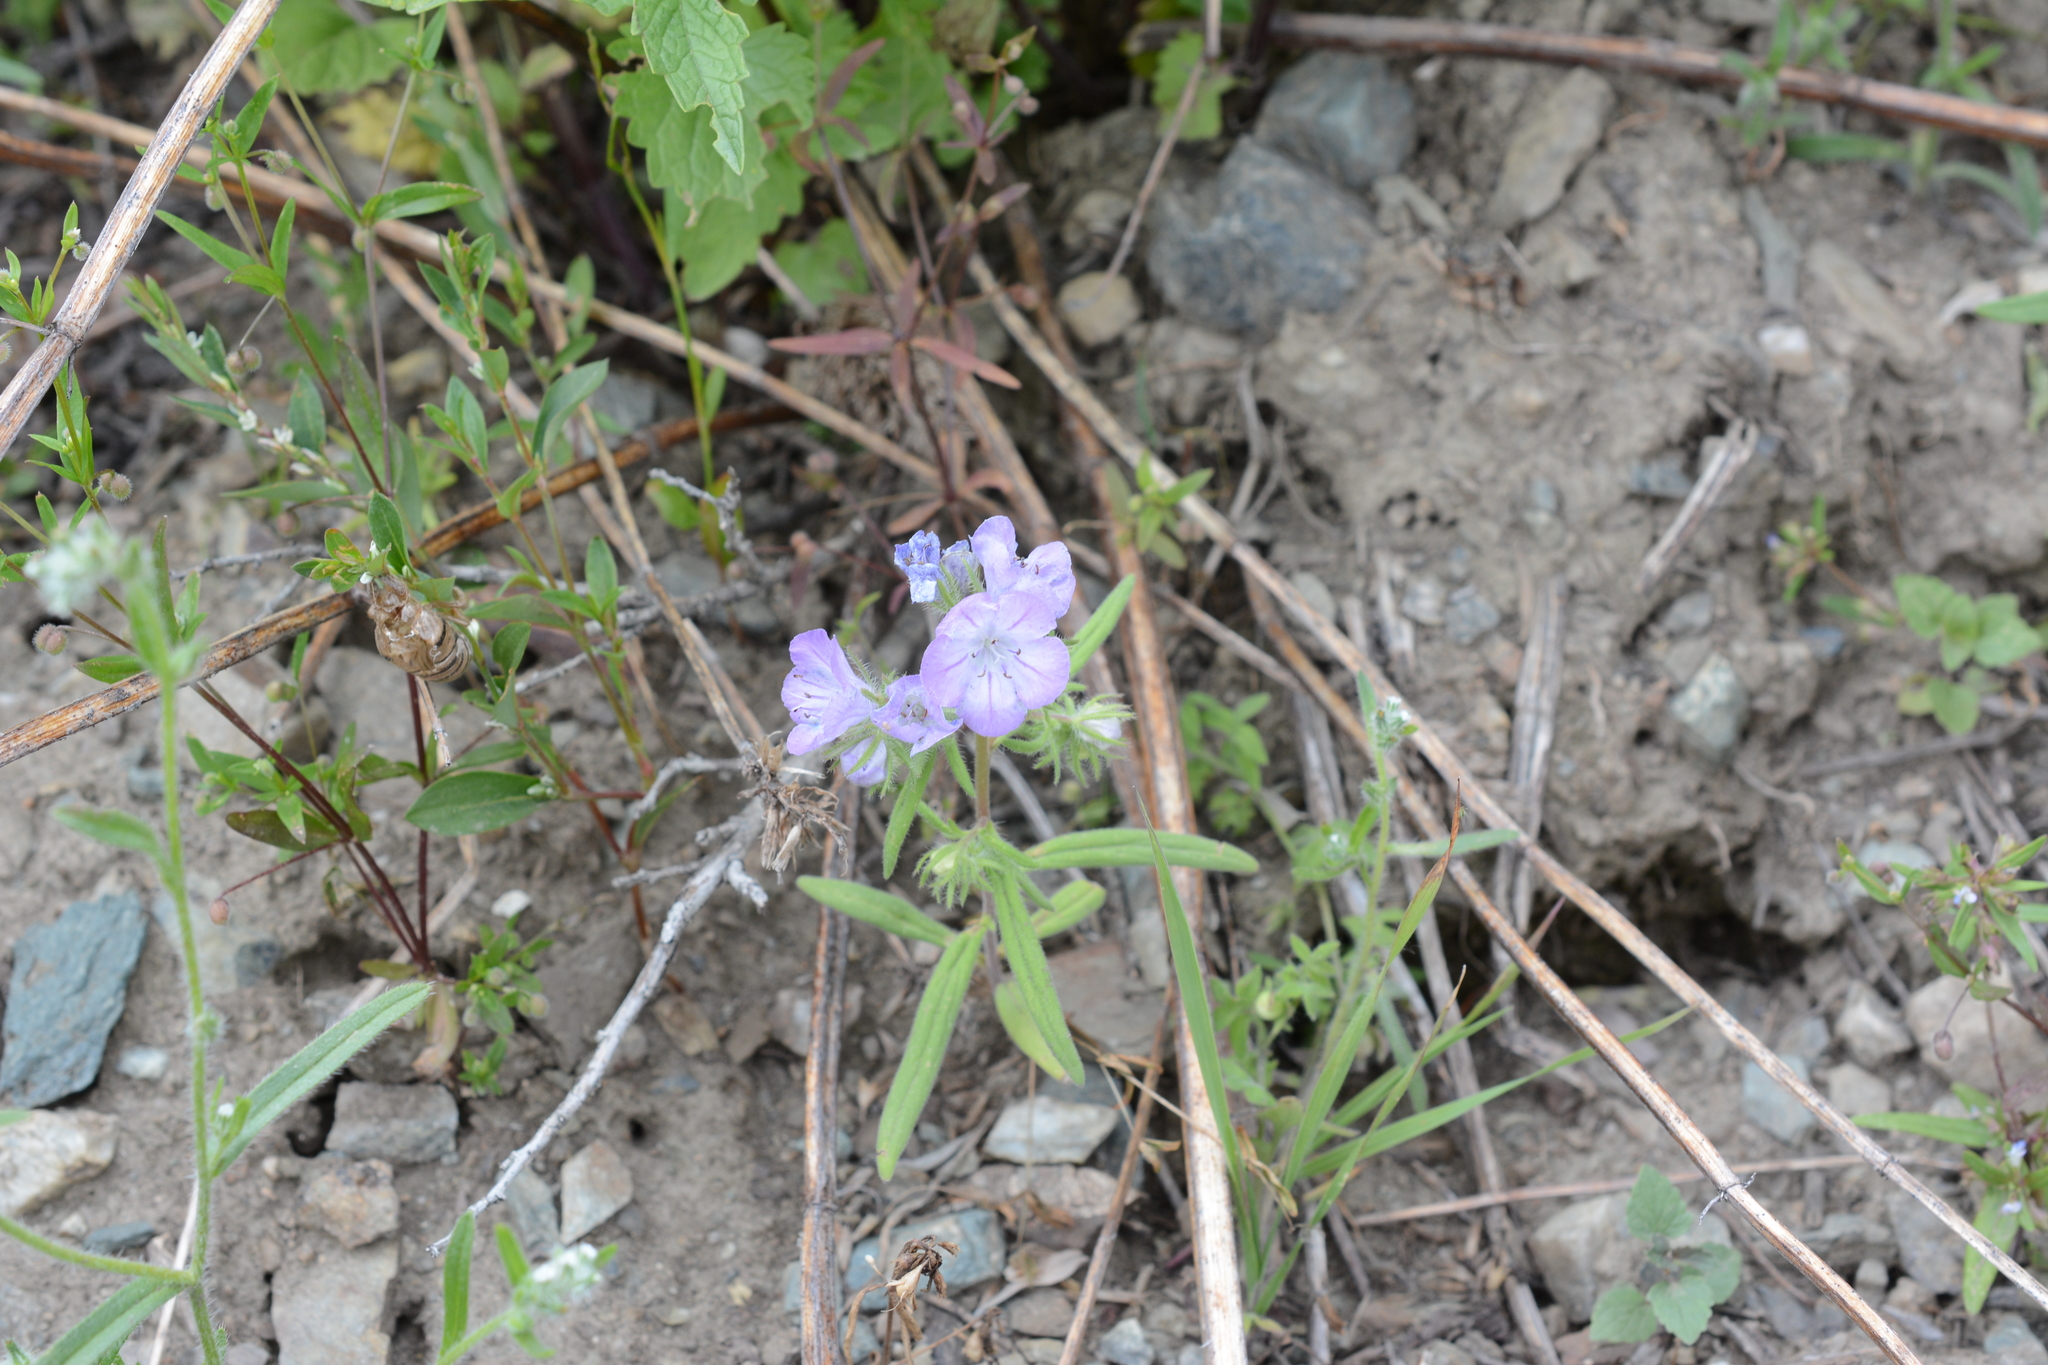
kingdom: Plantae
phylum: Tracheophyta
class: Magnoliopsida
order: Boraginales
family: Hydrophyllaceae
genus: Phacelia
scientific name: Phacelia linearis
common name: Linear-leaved phacelia
